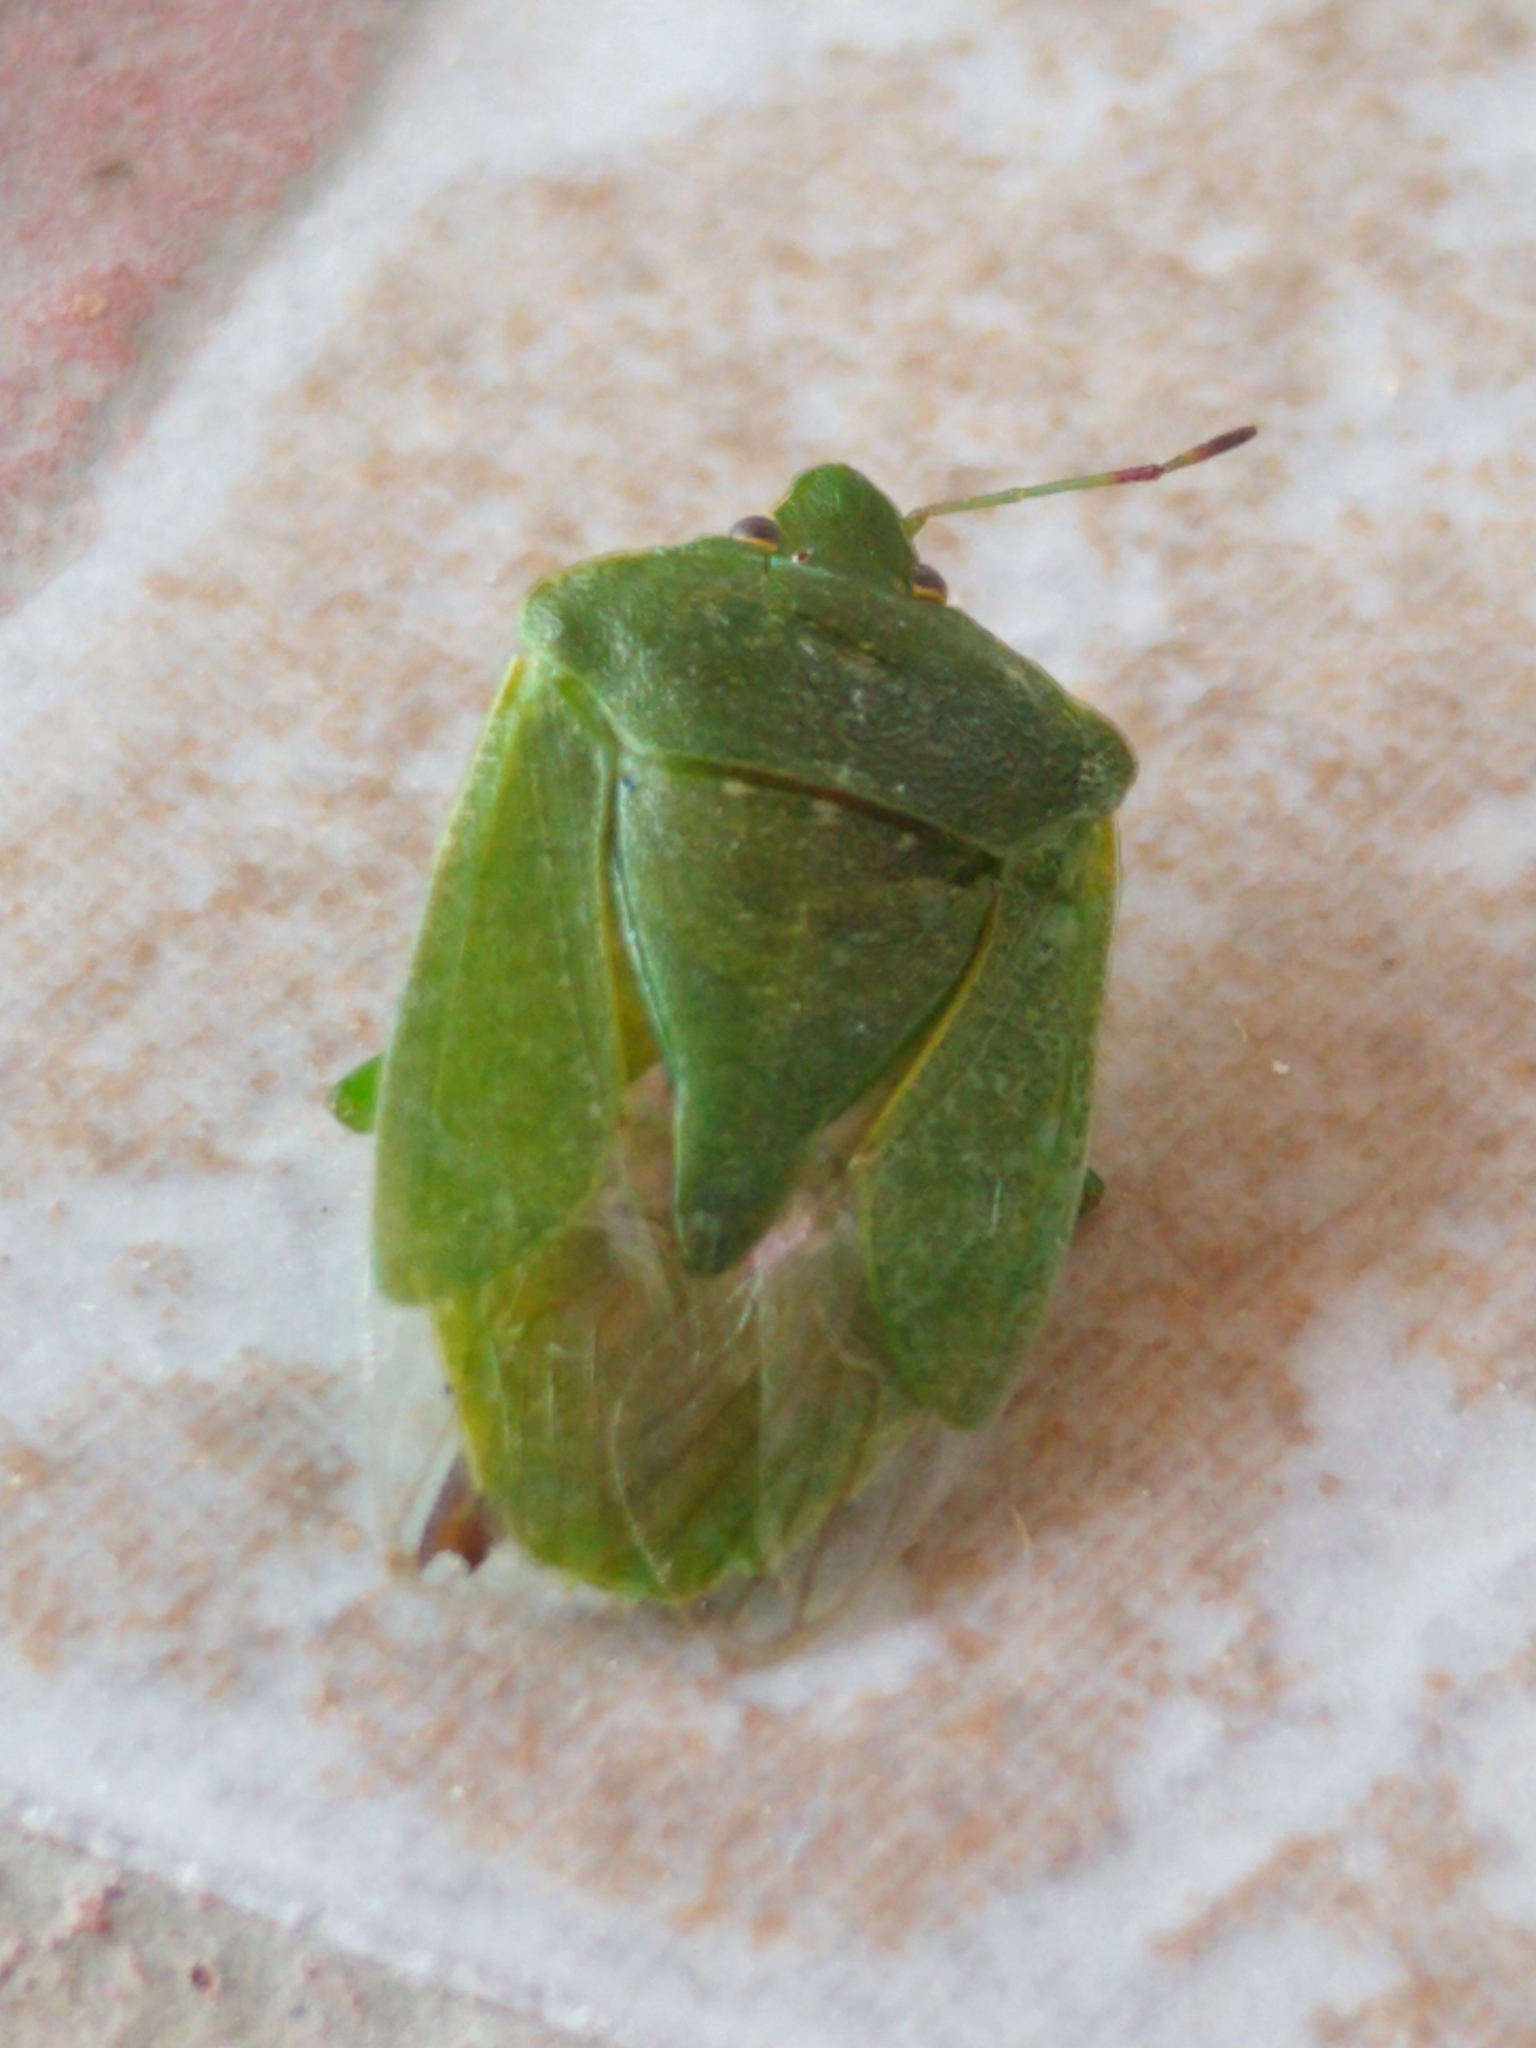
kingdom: Animalia
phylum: Arthropoda
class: Insecta
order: Hemiptera
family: Pentatomidae
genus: Nezara
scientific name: Nezara viridula
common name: Southern green stink bug
